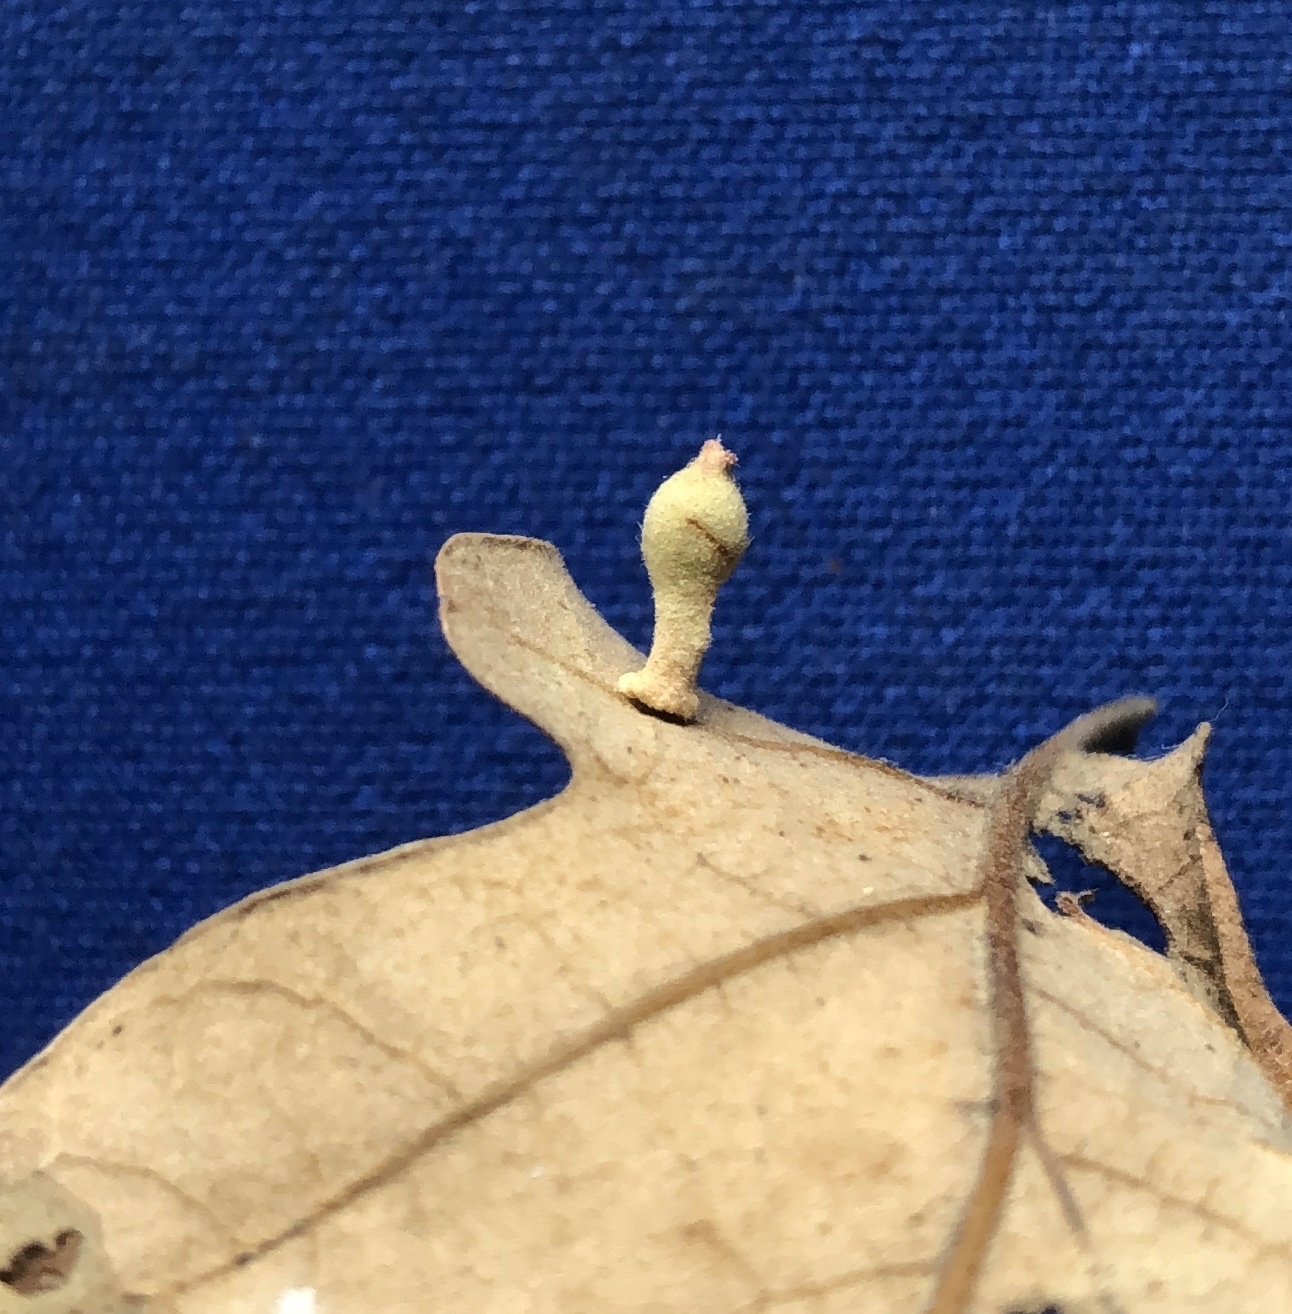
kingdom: Animalia
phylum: Arthropoda
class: Insecta
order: Hymenoptera
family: Cynipidae
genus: Atrusca
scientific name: Atrusca
